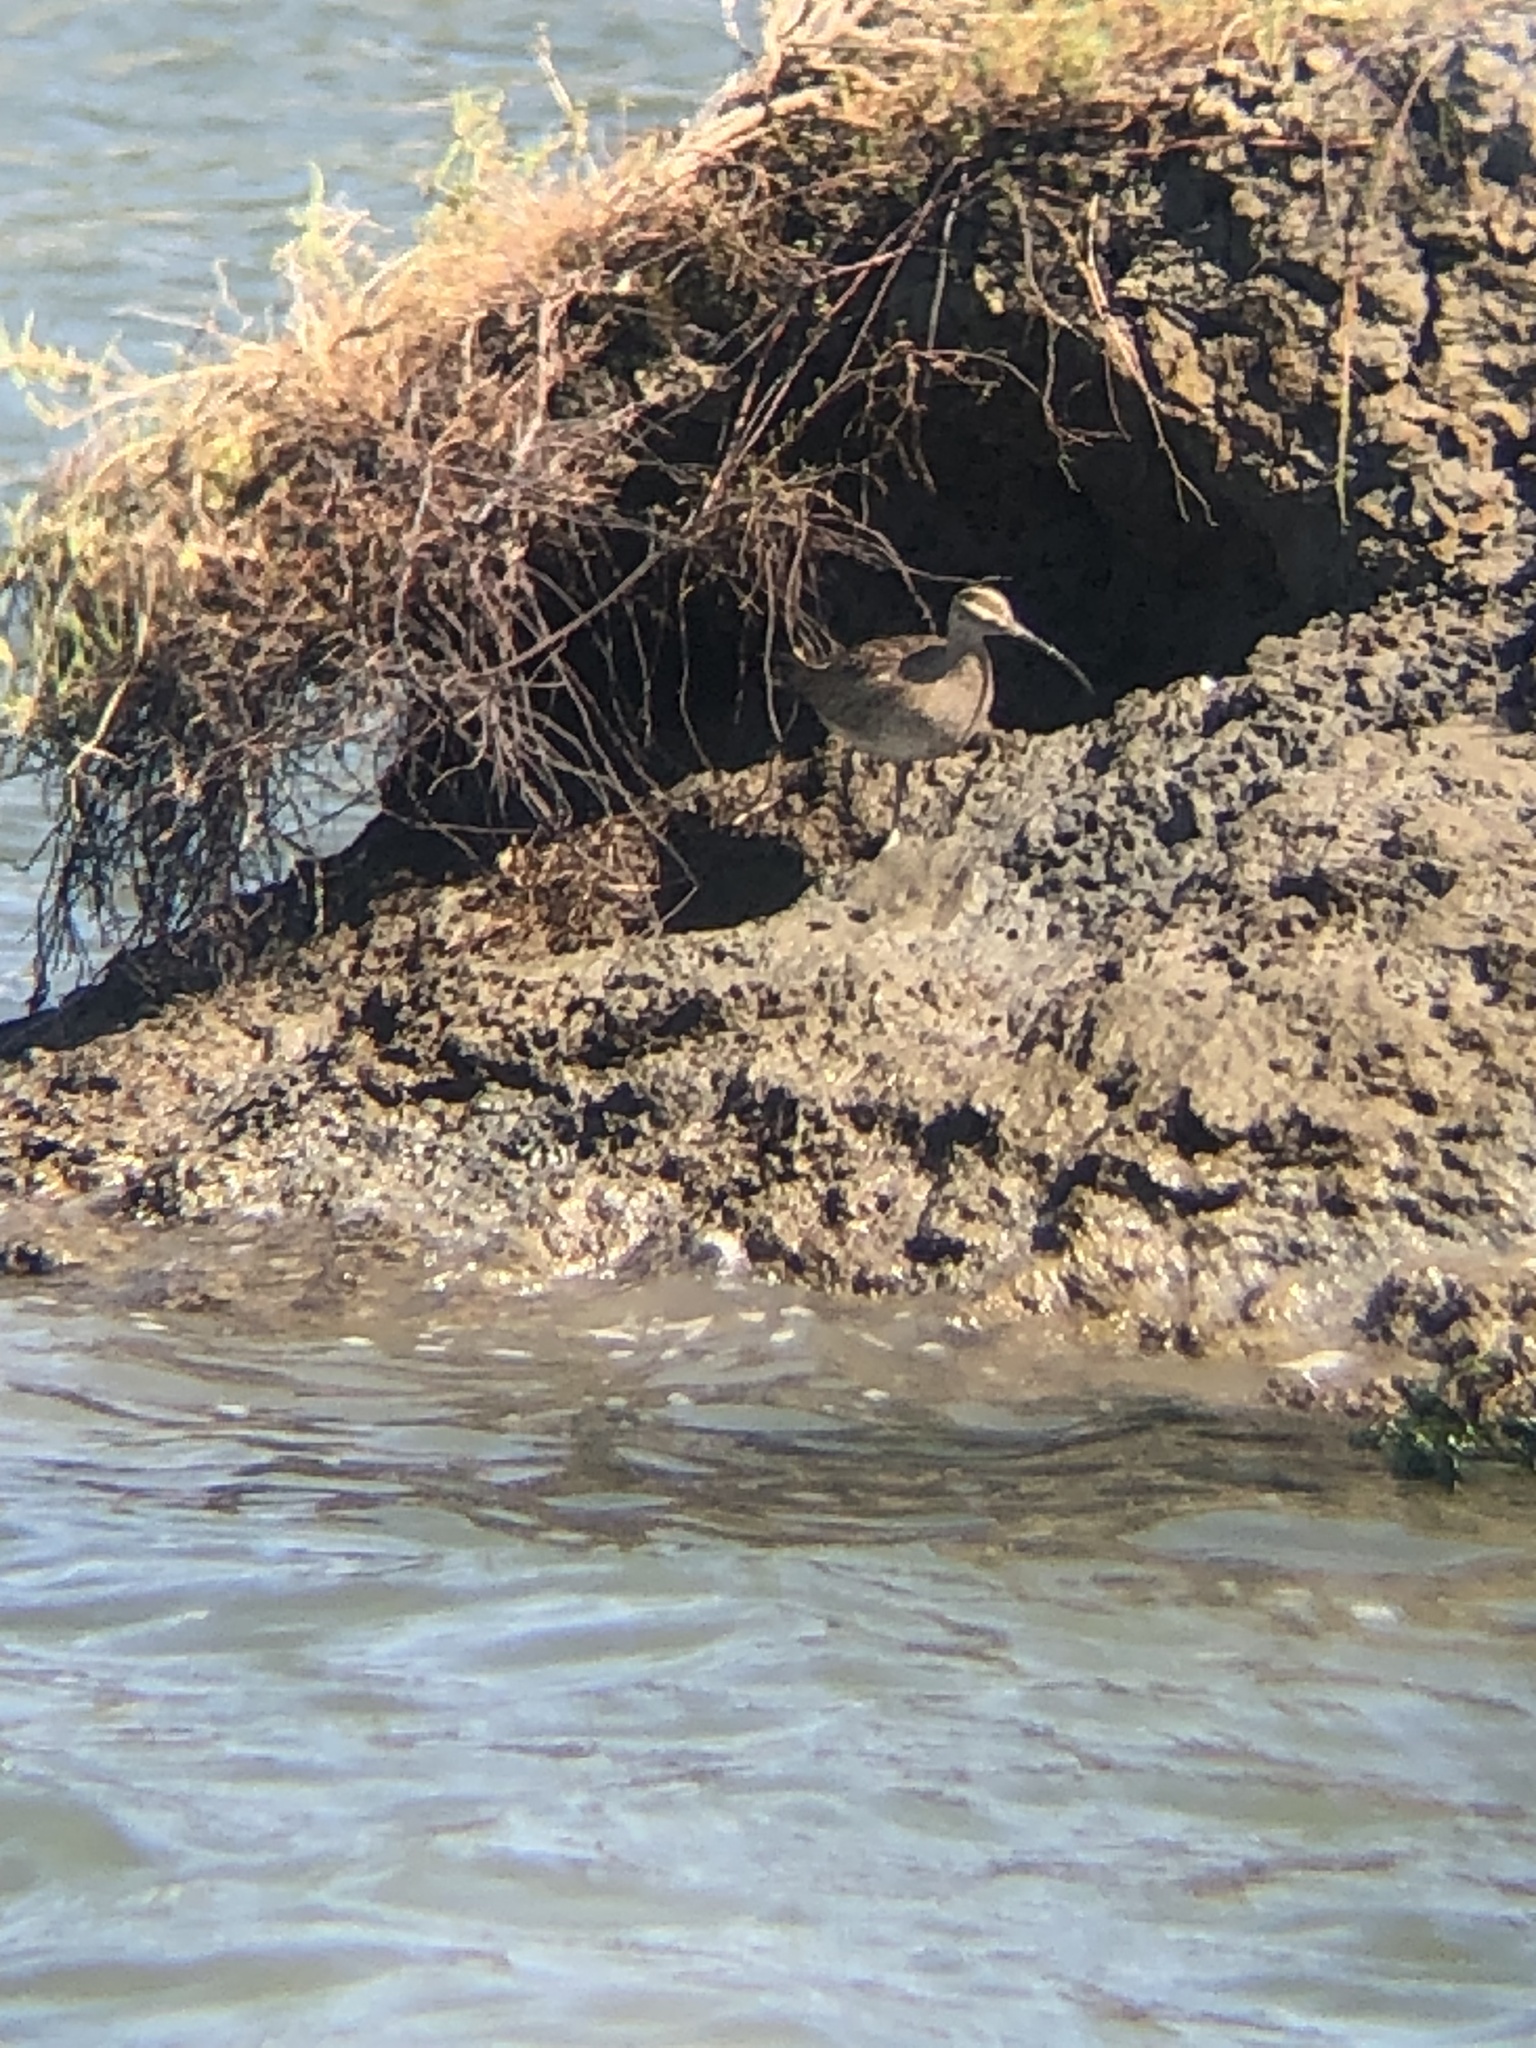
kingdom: Animalia
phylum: Chordata
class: Aves
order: Charadriiformes
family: Scolopacidae
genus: Numenius
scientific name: Numenius phaeopus
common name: Whimbrel
